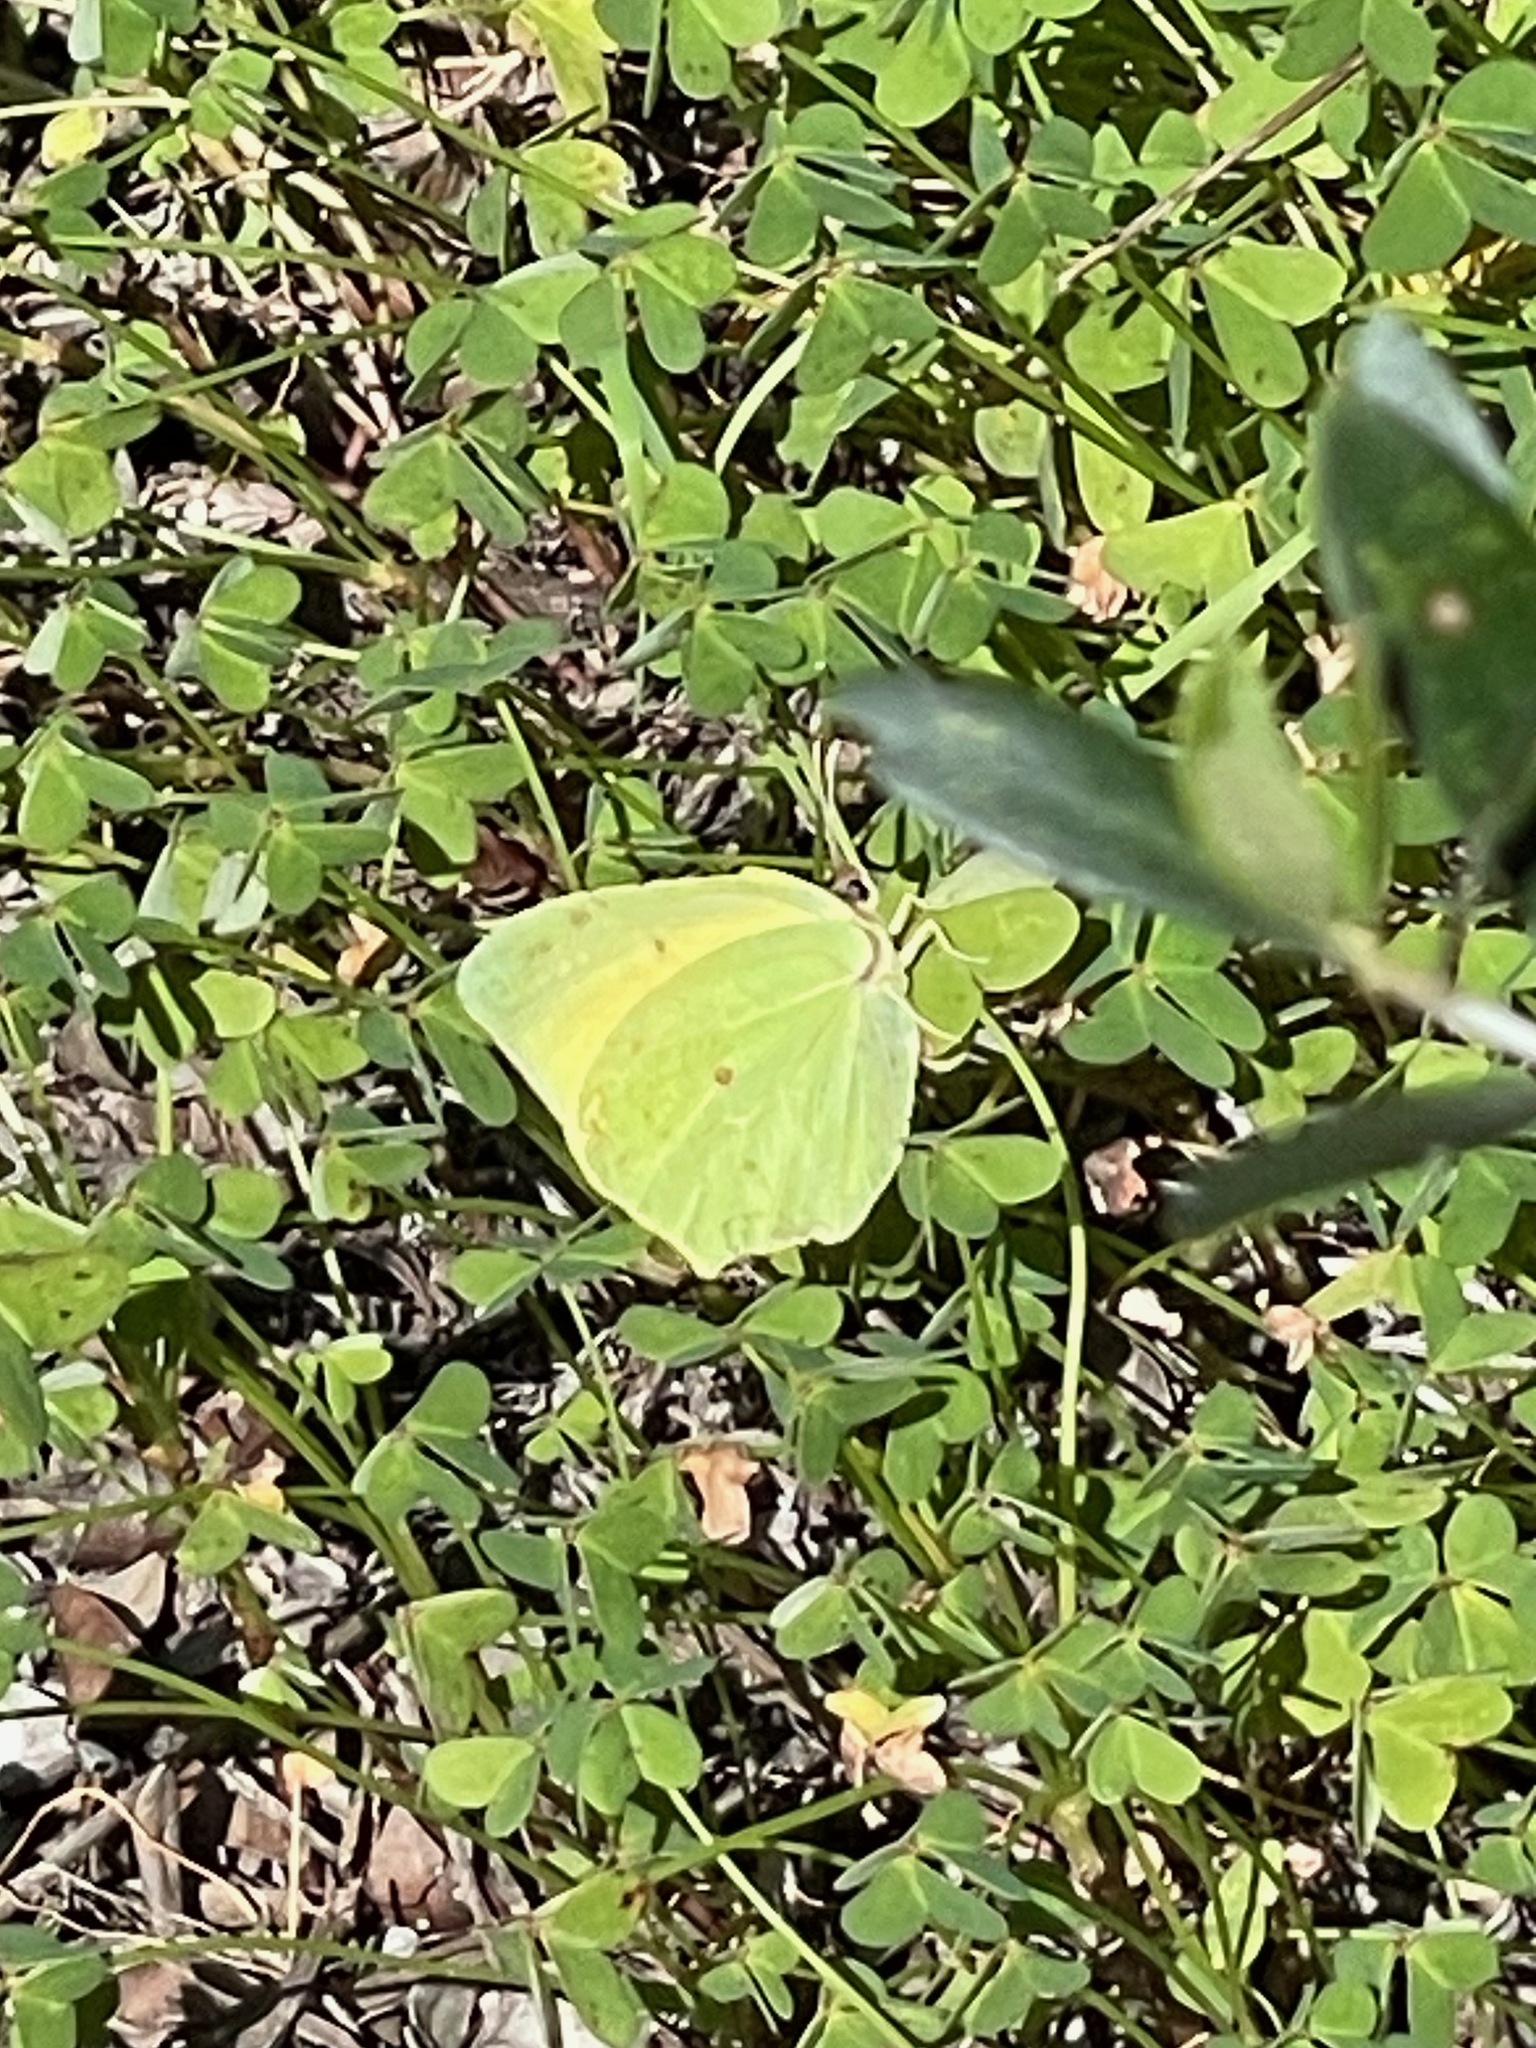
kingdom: Animalia
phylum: Arthropoda
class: Insecta
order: Lepidoptera
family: Pieridae
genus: Gonepteryx
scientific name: Gonepteryx cleopatra
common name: Cleopatra
